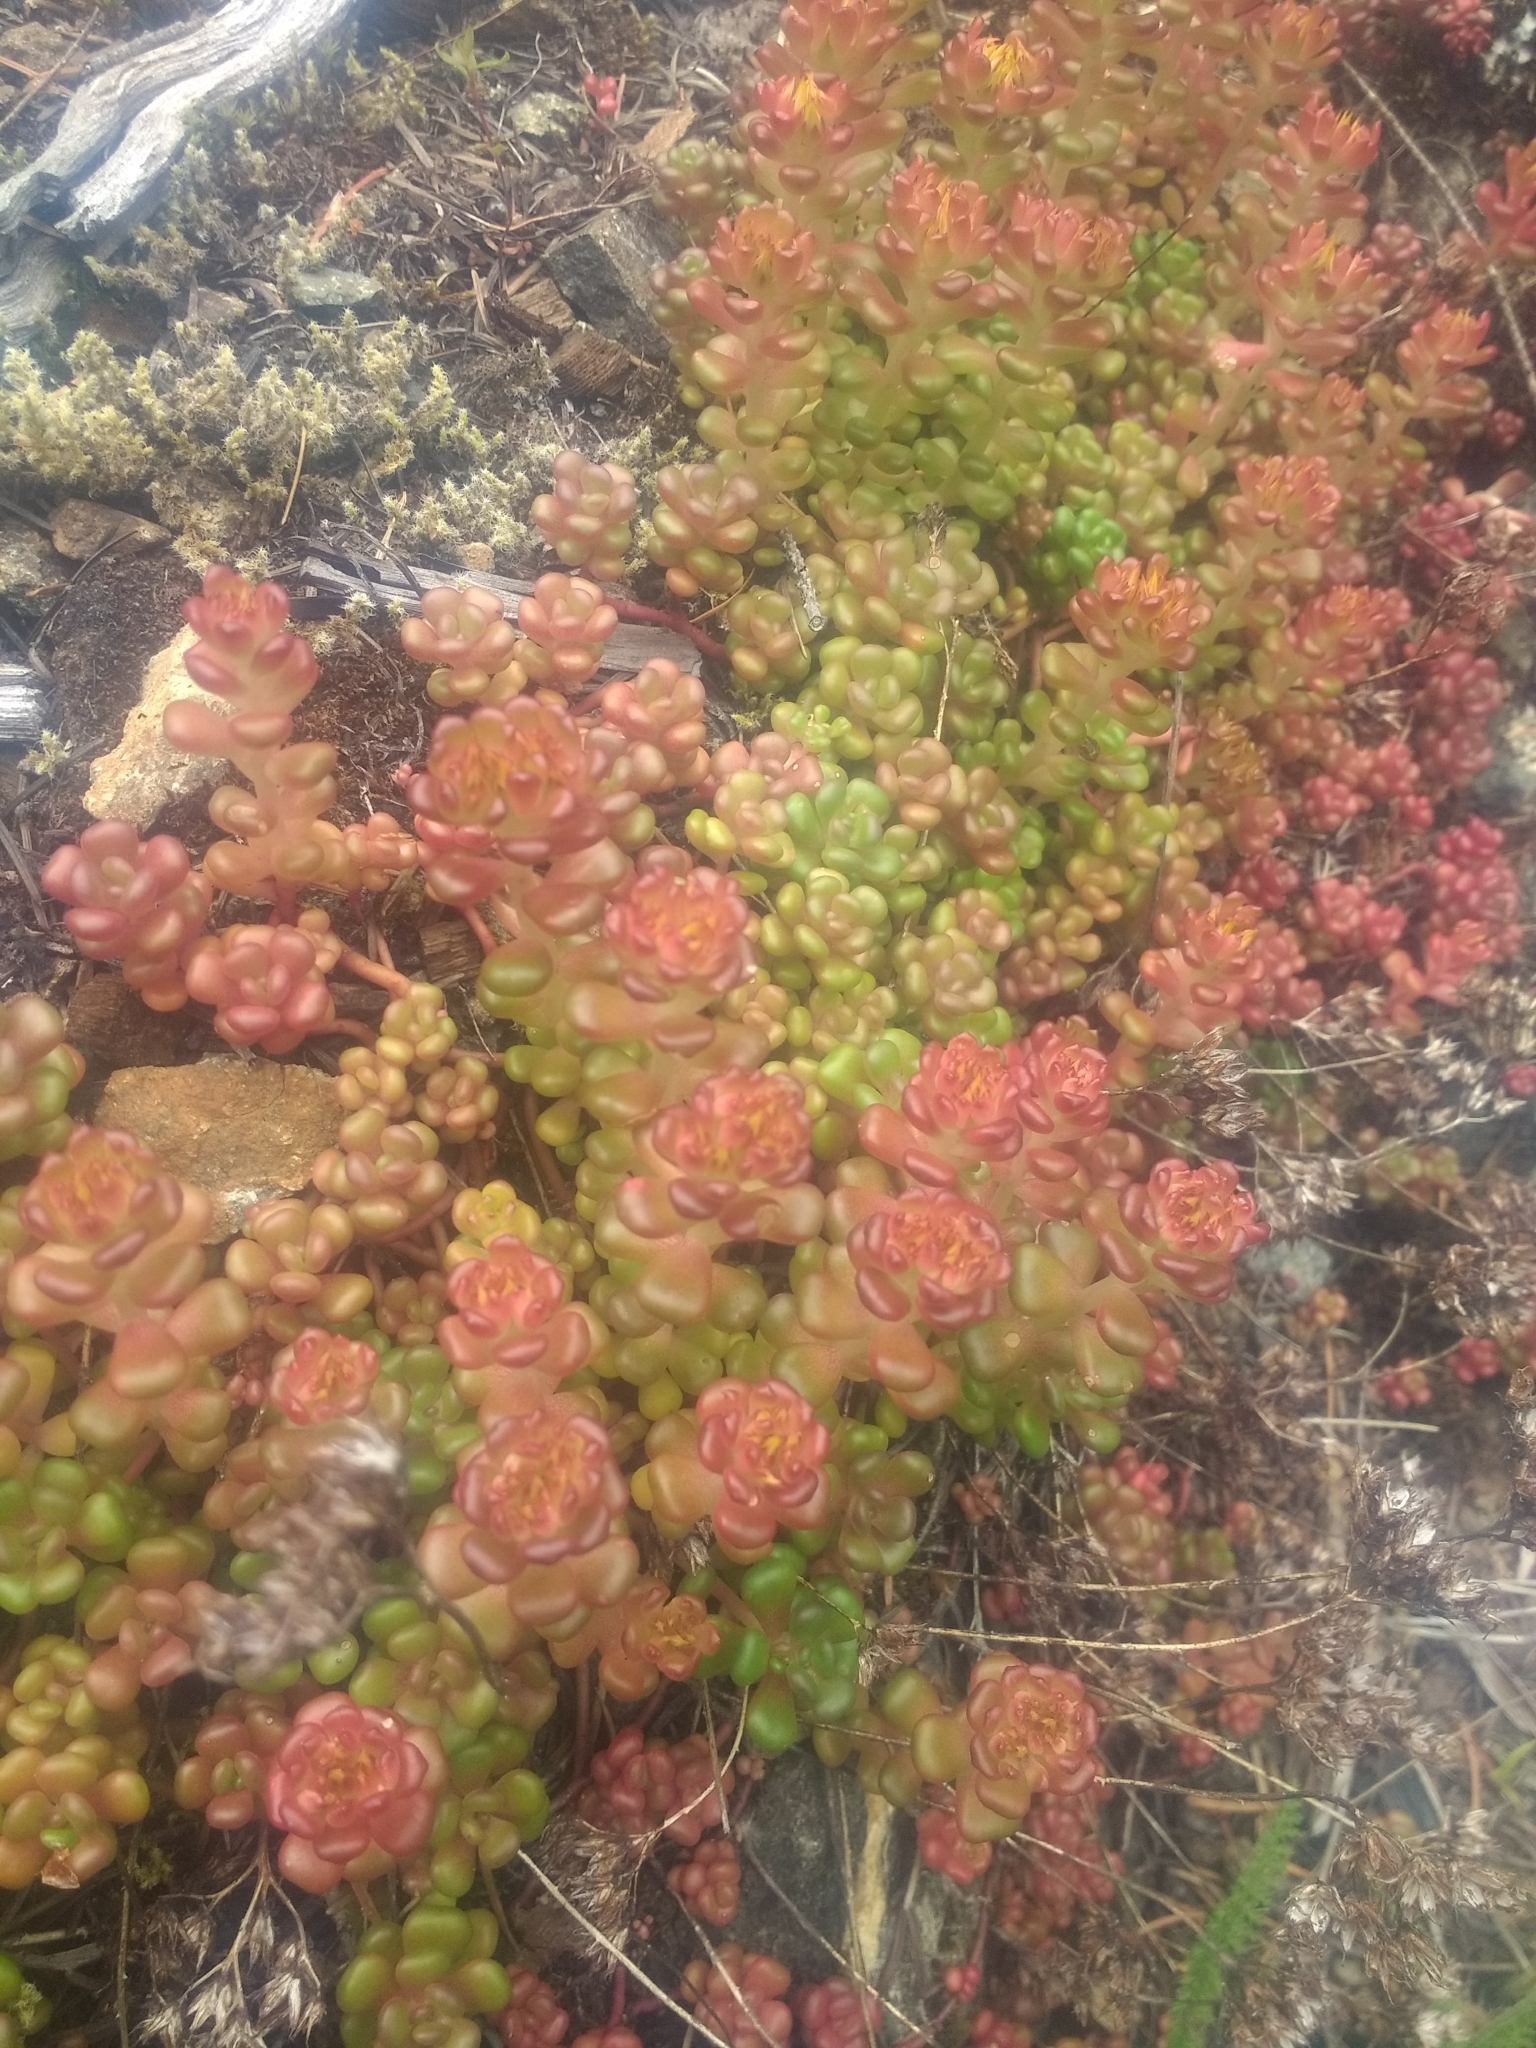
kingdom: Plantae
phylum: Tracheophyta
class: Magnoliopsida
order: Saxifragales
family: Crassulaceae
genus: Sedum
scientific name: Sedum oreganum
